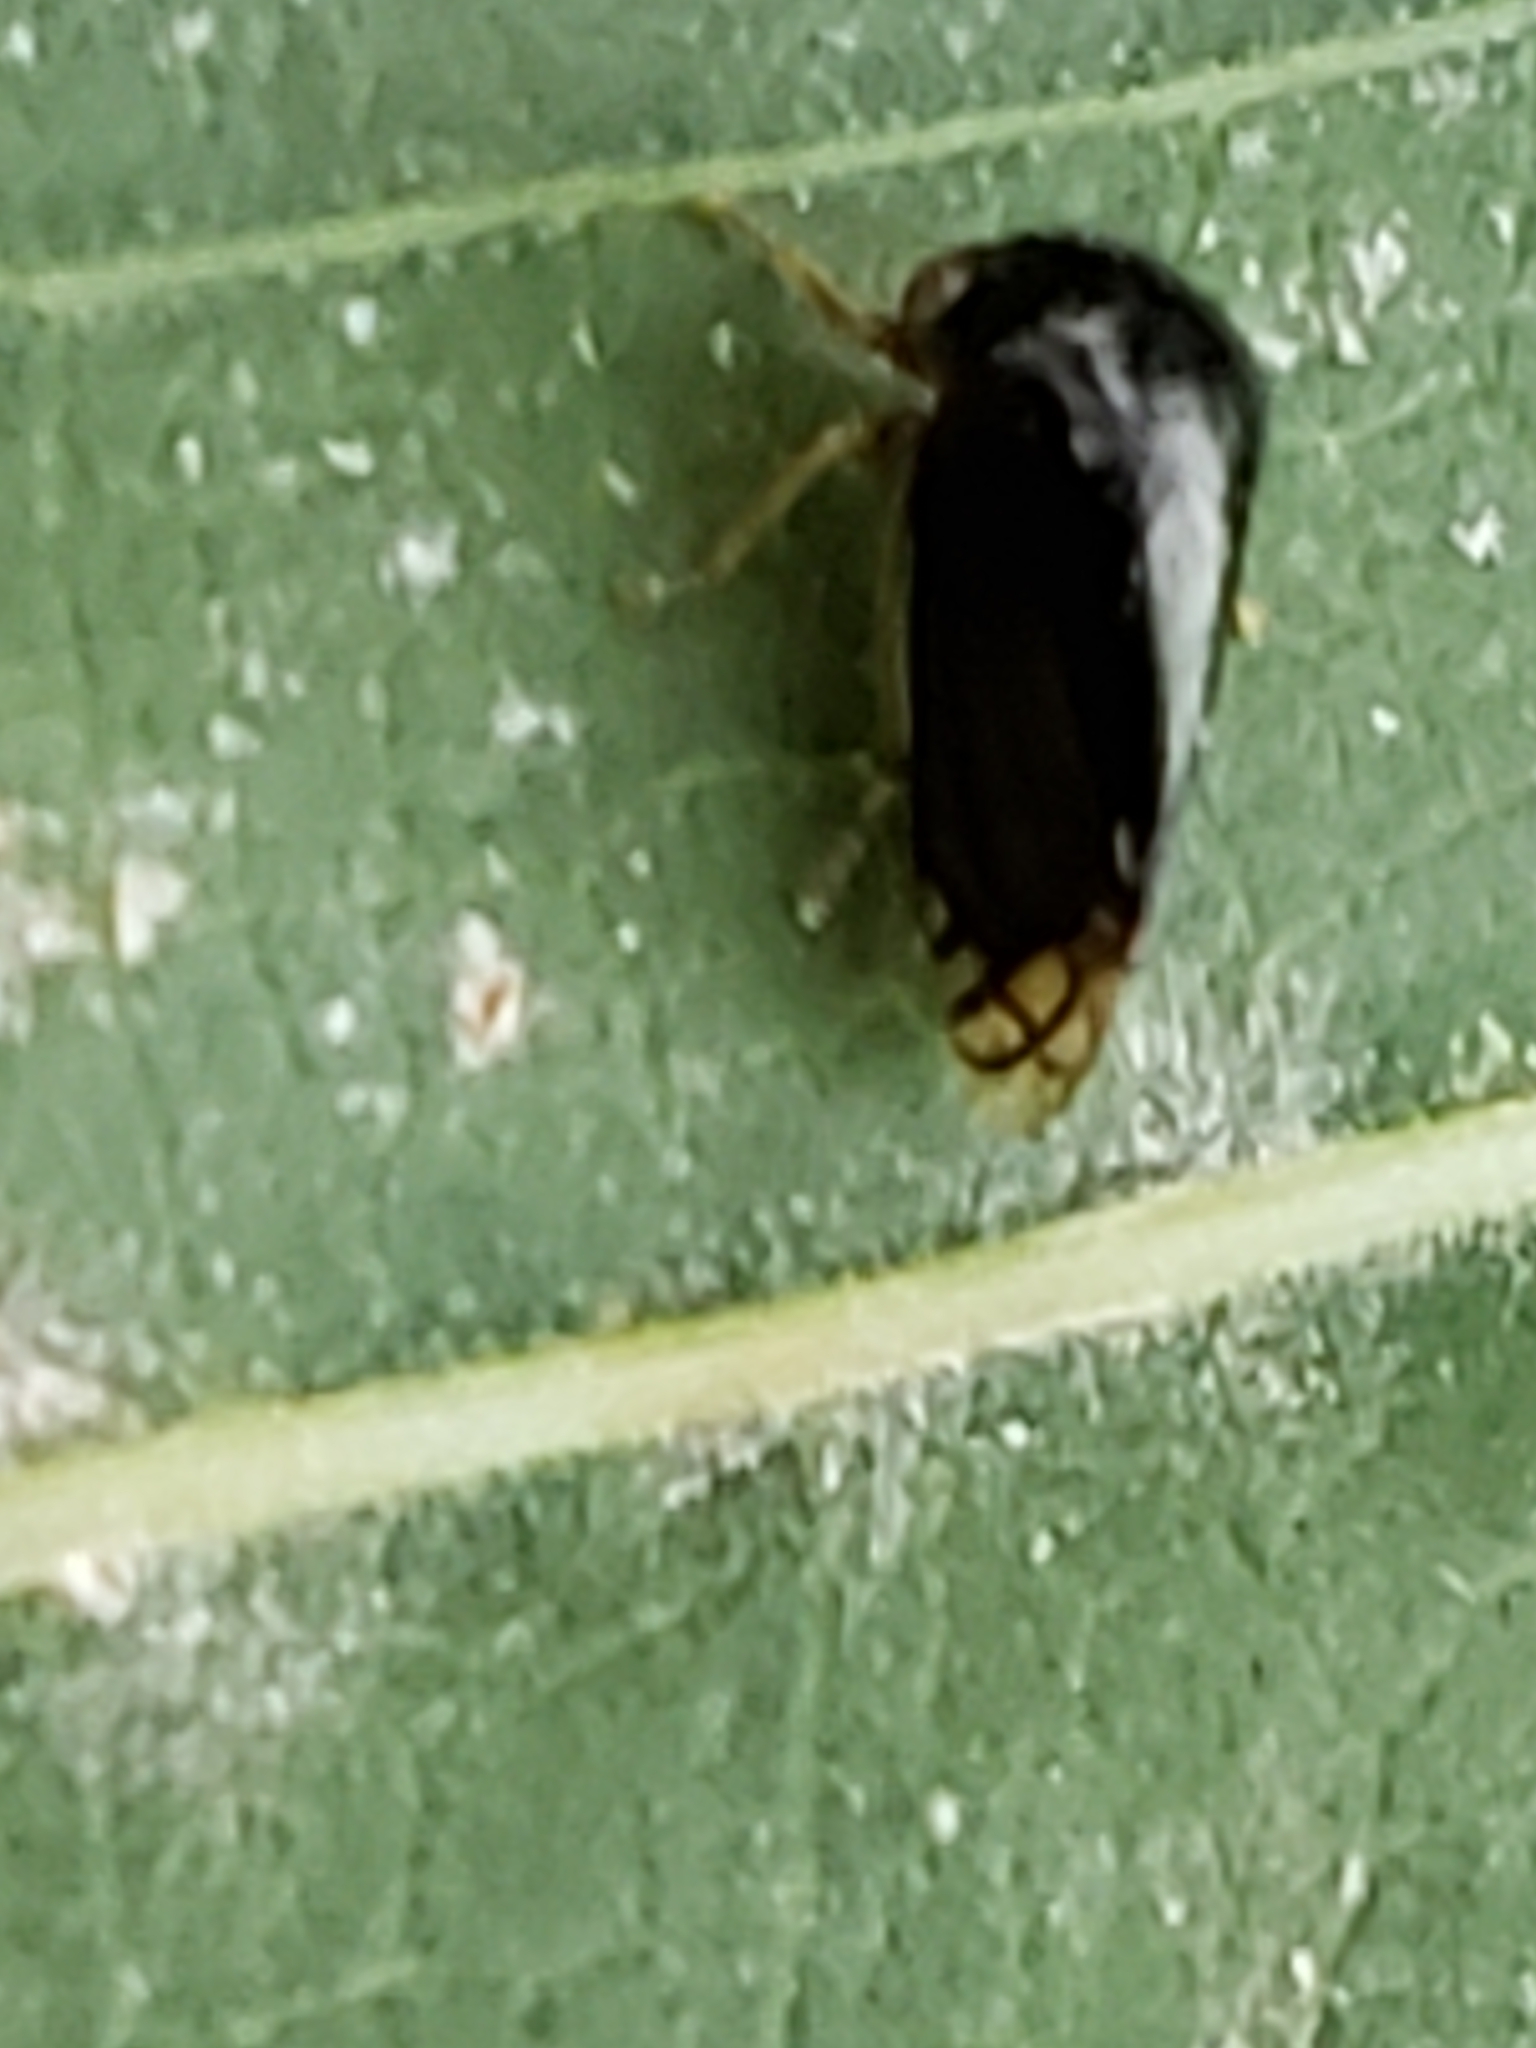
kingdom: Animalia
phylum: Arthropoda
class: Insecta
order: Hemiptera
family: Membracidae
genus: Acutalis
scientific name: Acutalis tartarea
